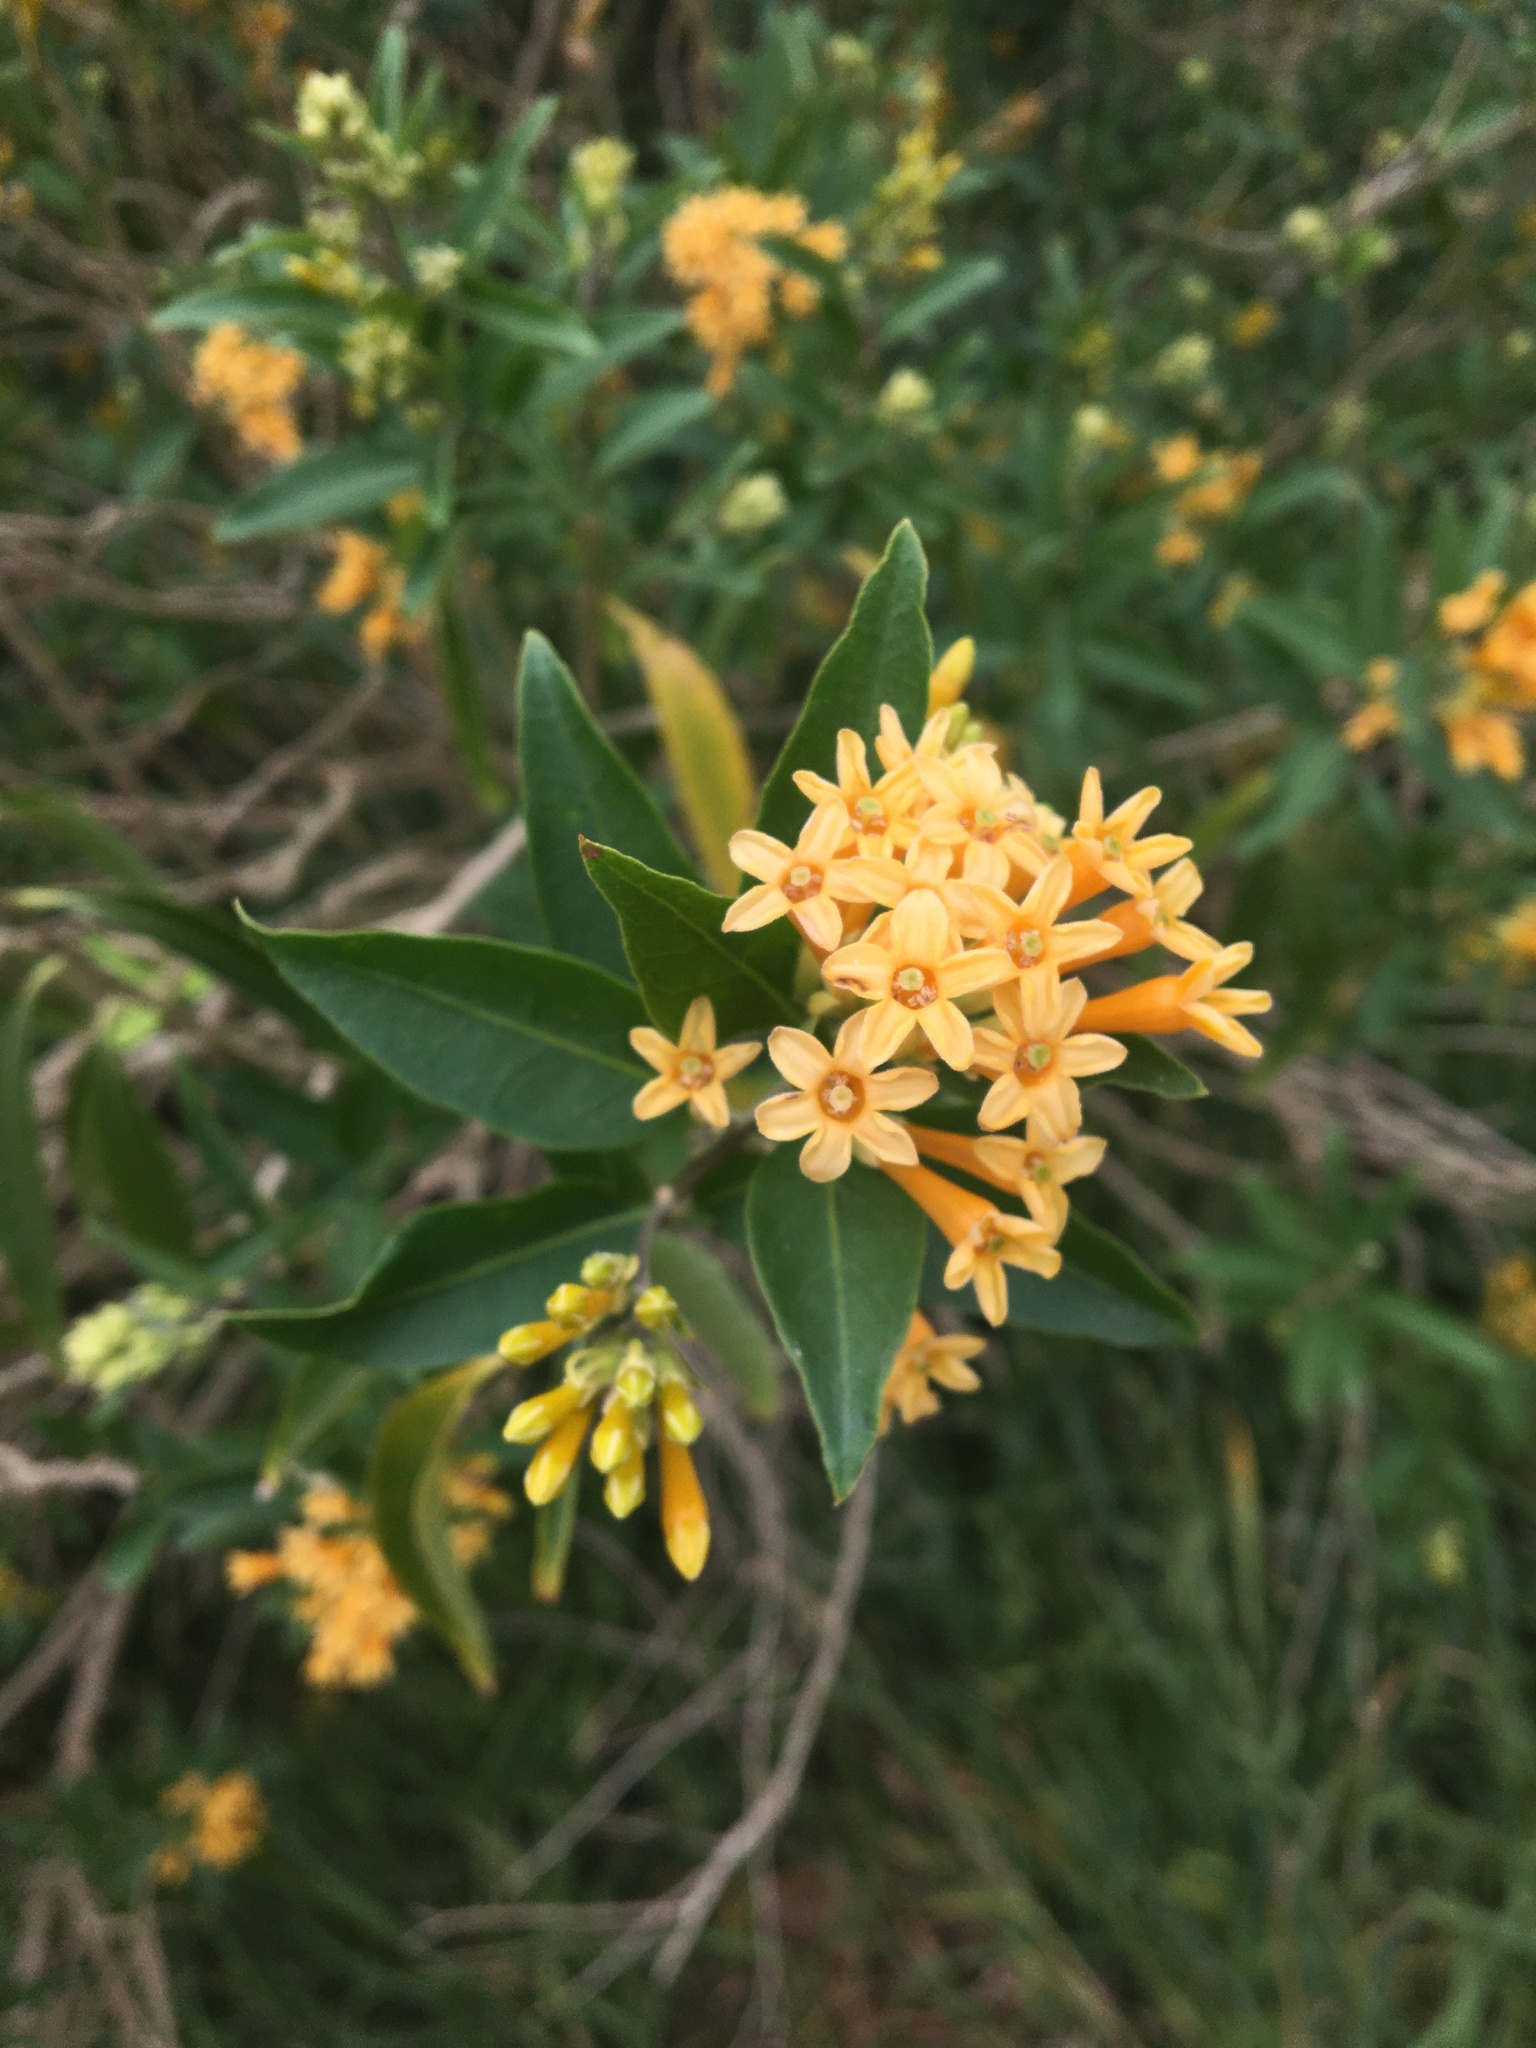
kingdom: Plantae
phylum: Tracheophyta
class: Magnoliopsida
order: Solanales
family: Solanaceae
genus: Cestrum
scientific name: Cestrum aurantiacum
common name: Orange cestrum
